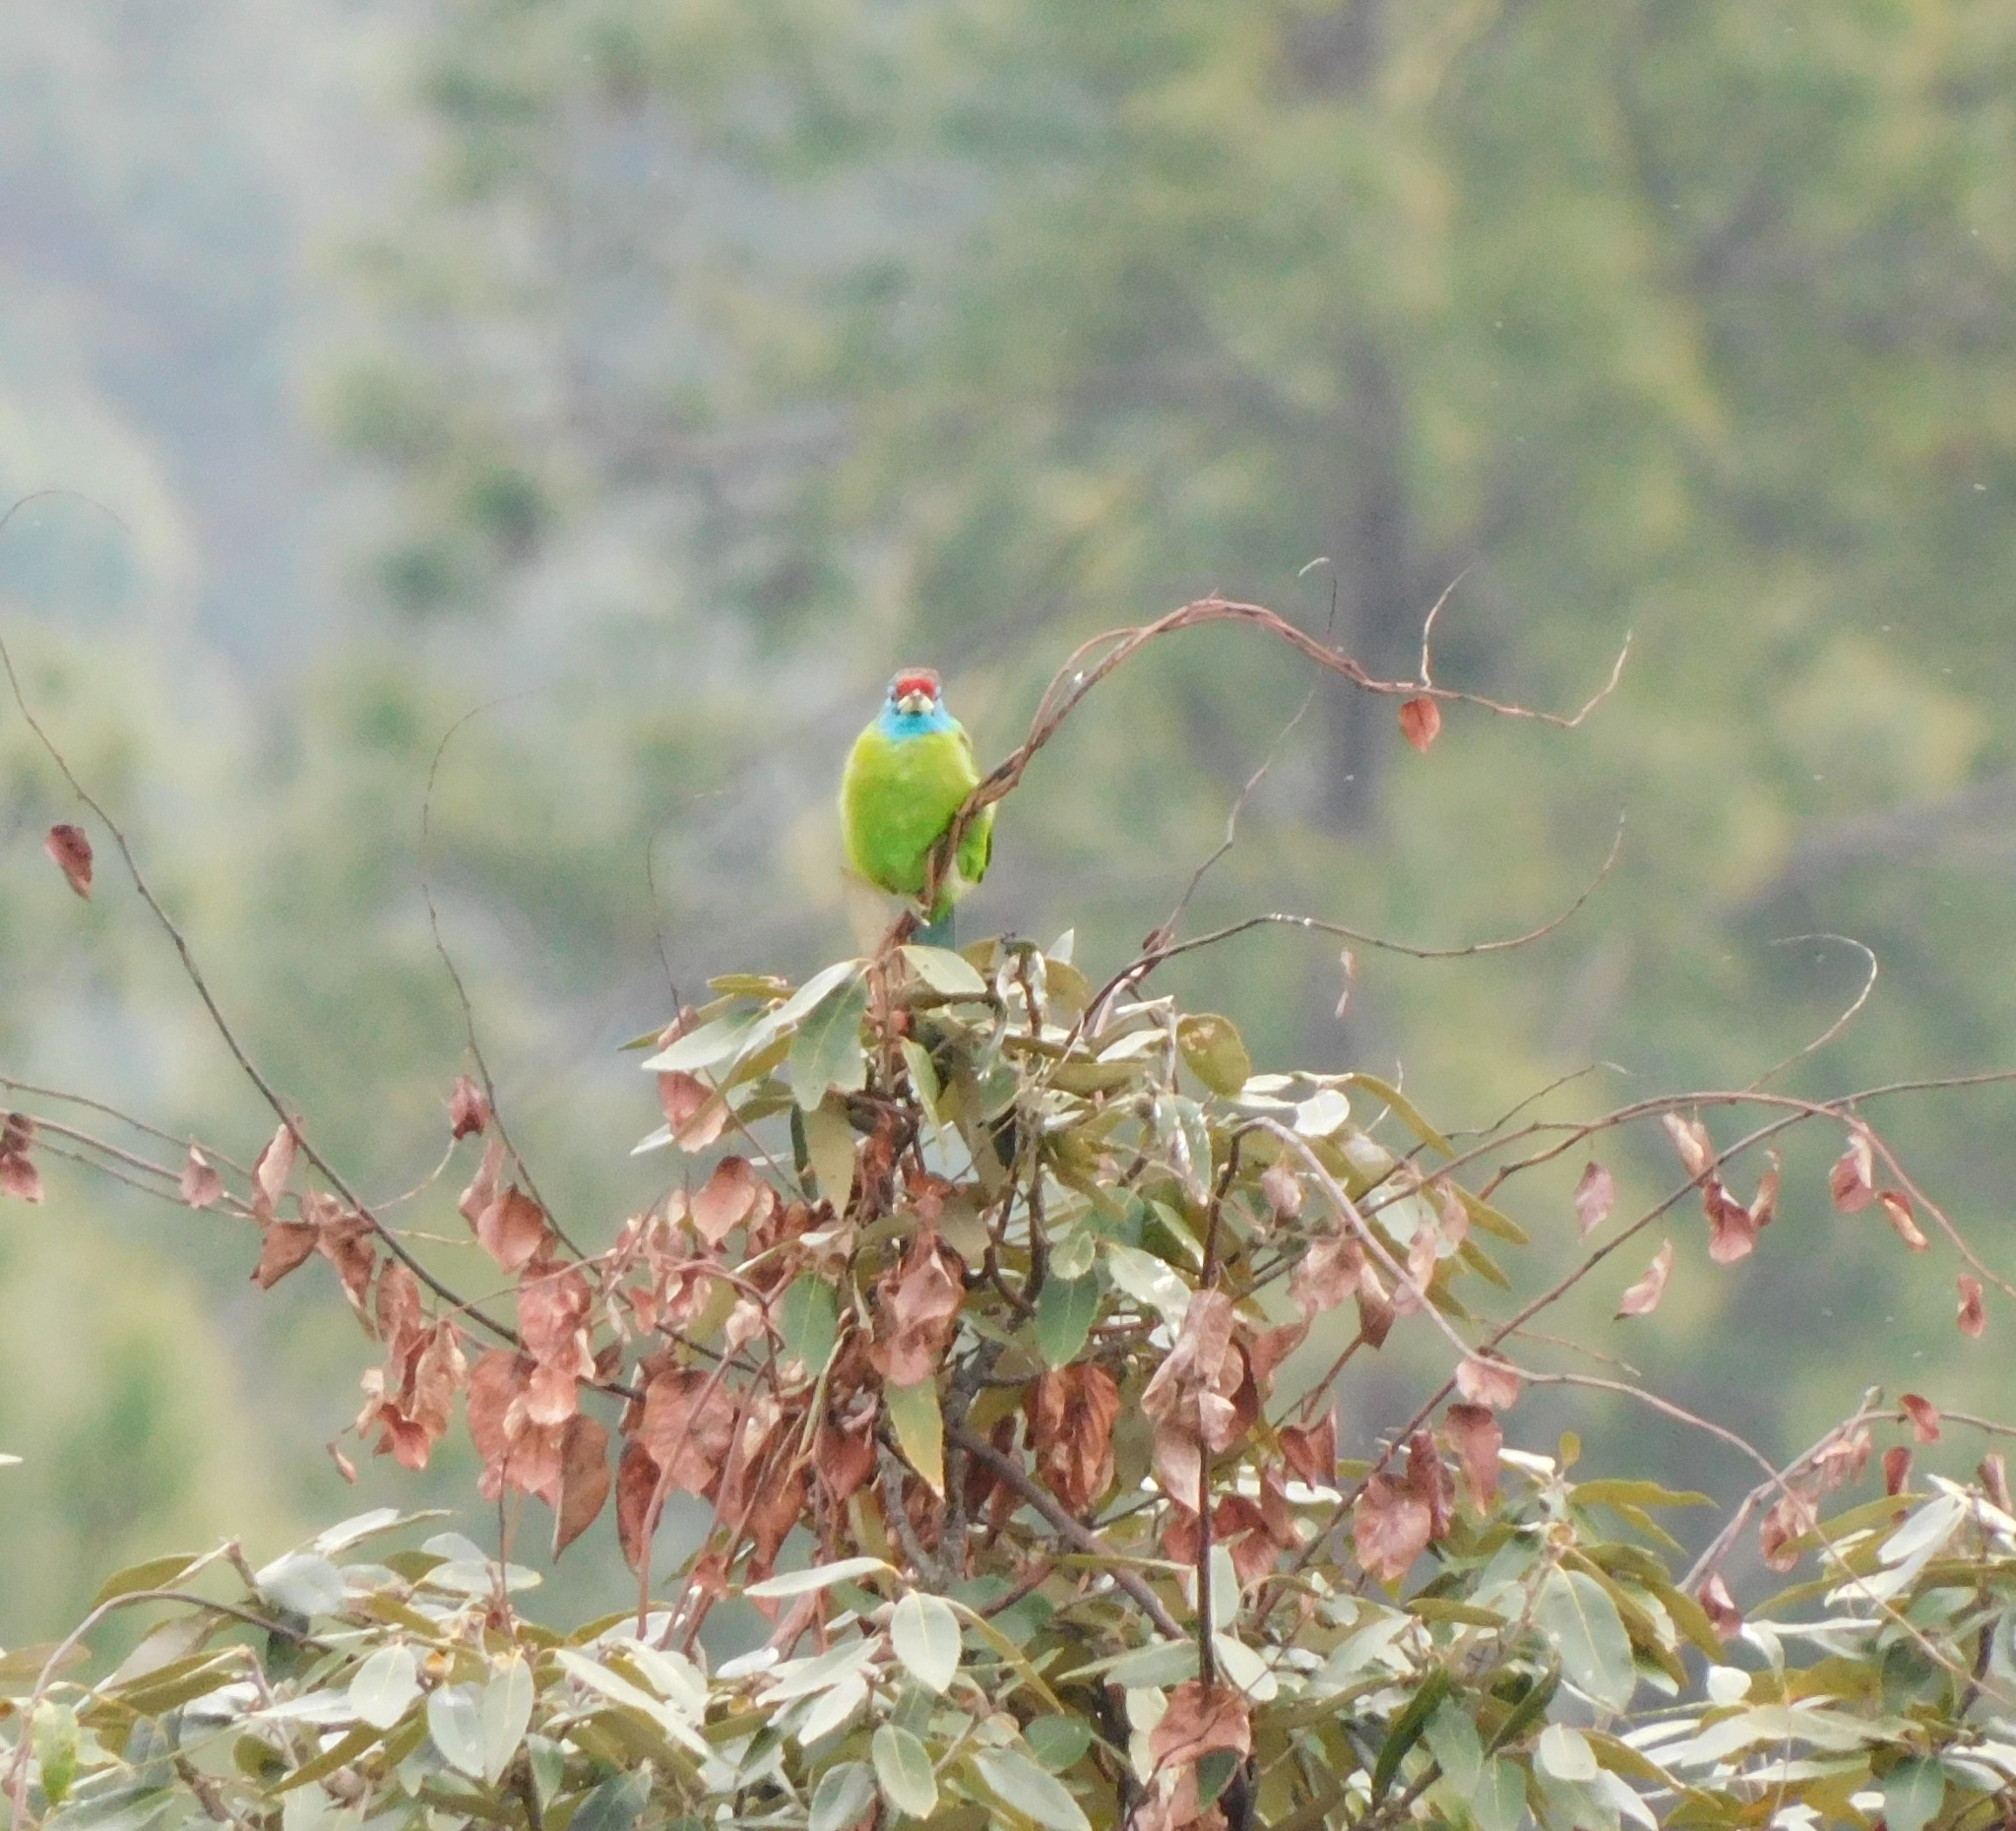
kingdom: Animalia
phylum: Chordata
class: Aves
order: Piciformes
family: Megalaimidae
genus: Psilopogon
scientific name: Psilopogon asiaticus
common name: Blue-throated barbet
